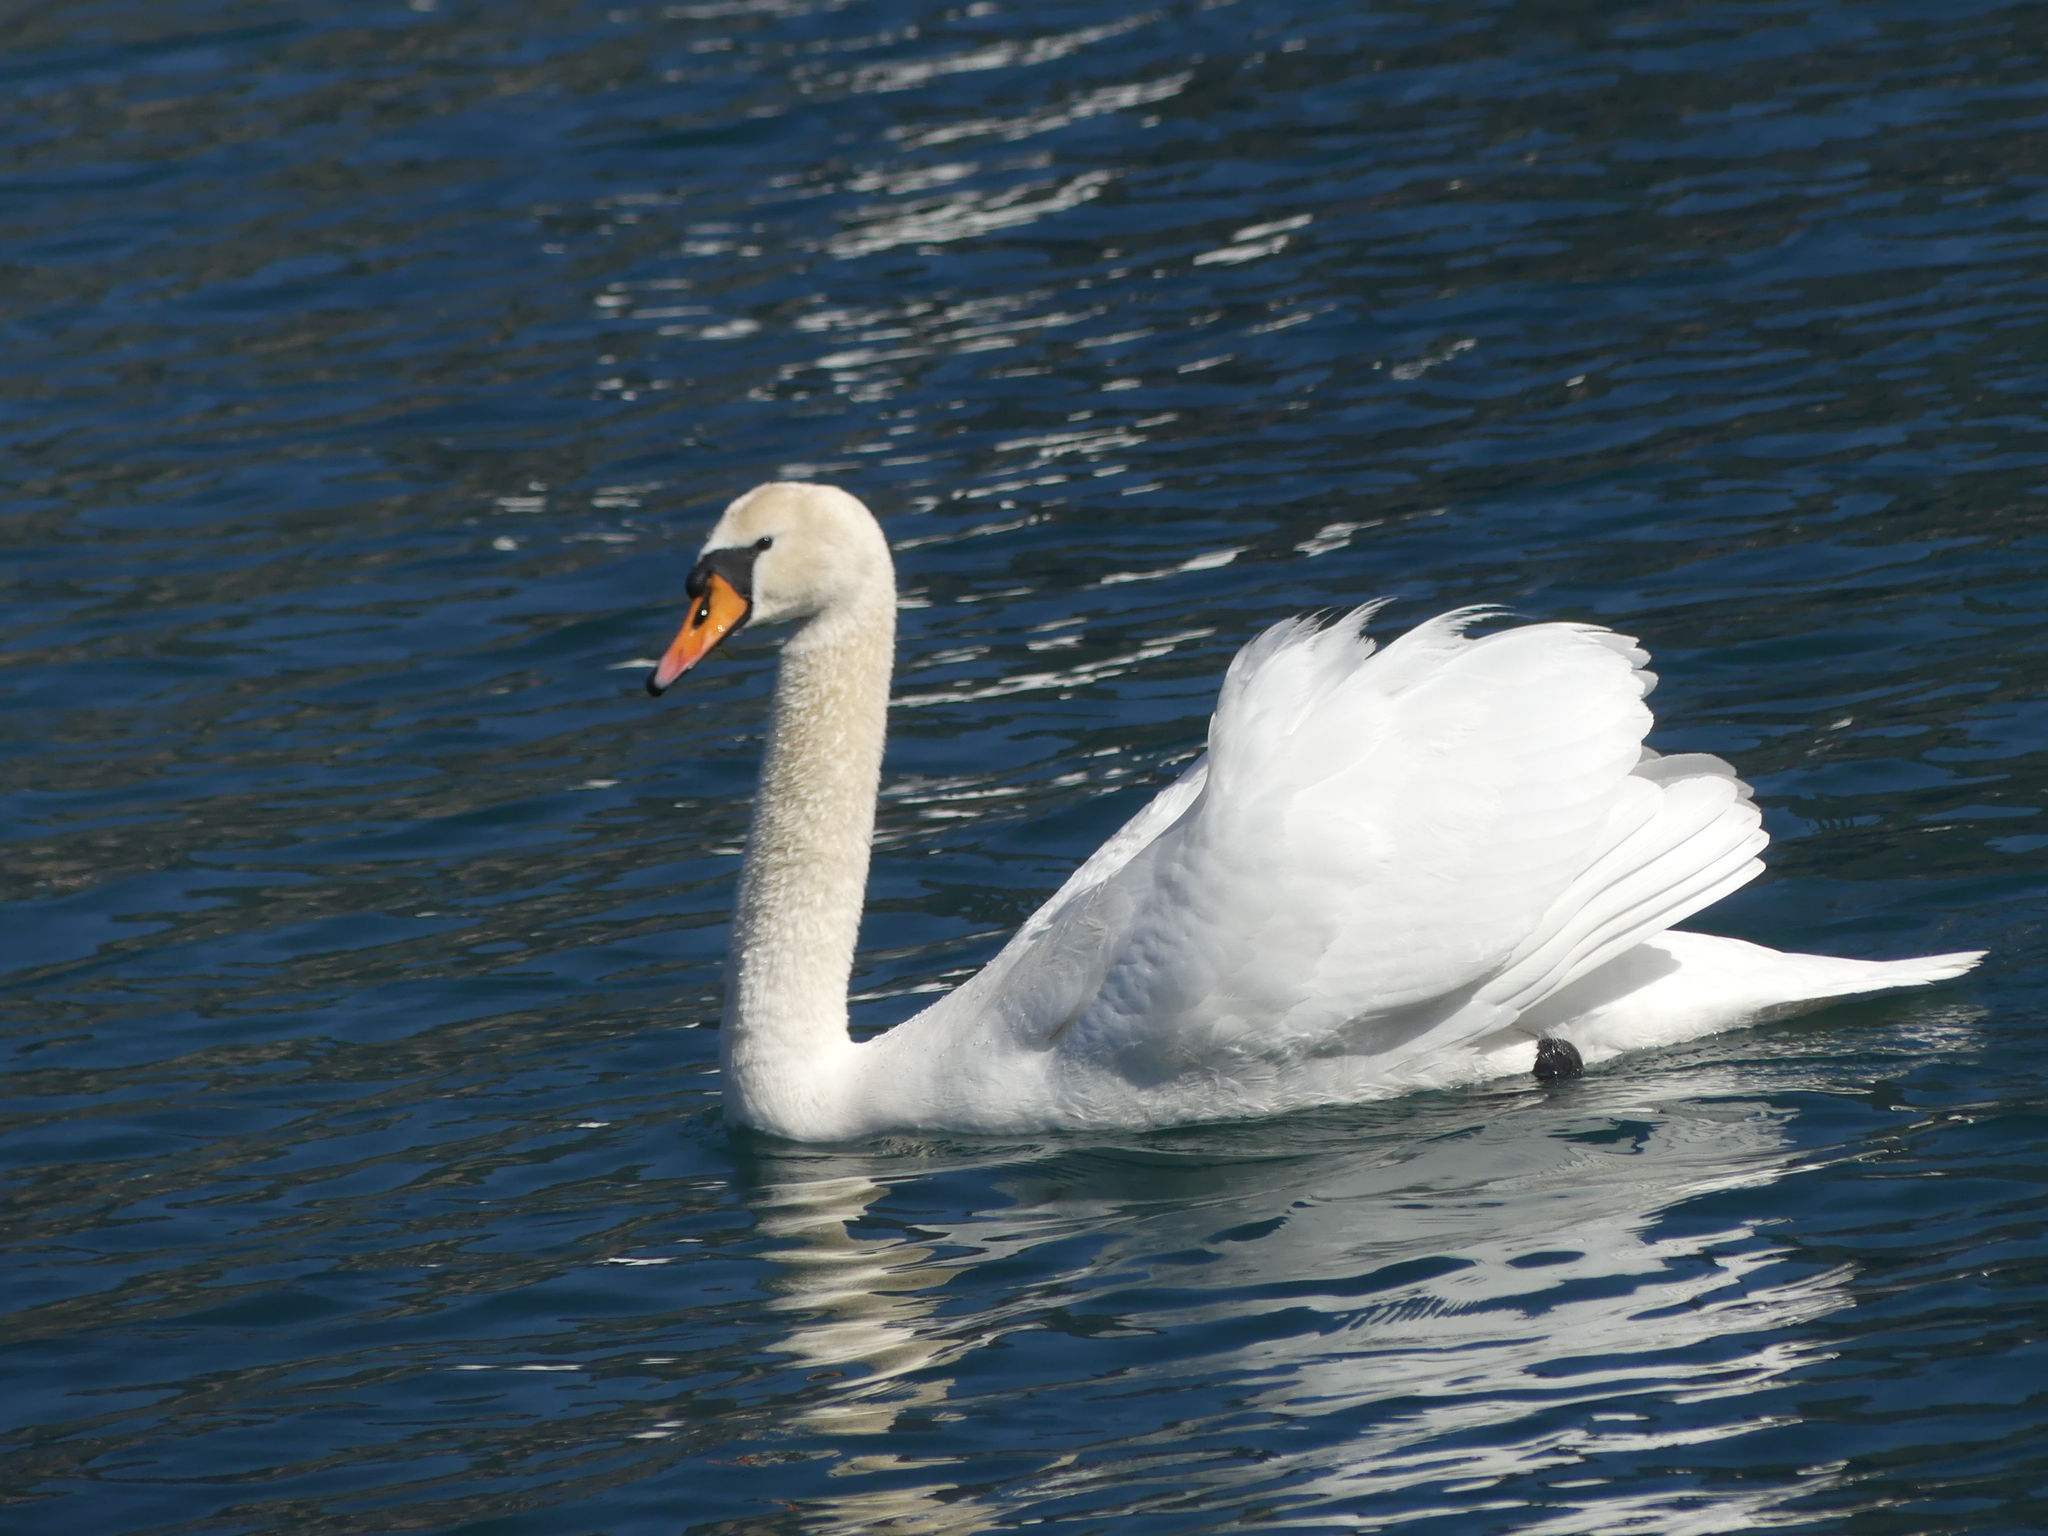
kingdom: Animalia
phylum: Chordata
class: Aves
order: Anseriformes
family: Anatidae
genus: Cygnus
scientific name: Cygnus olor
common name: Mute swan
